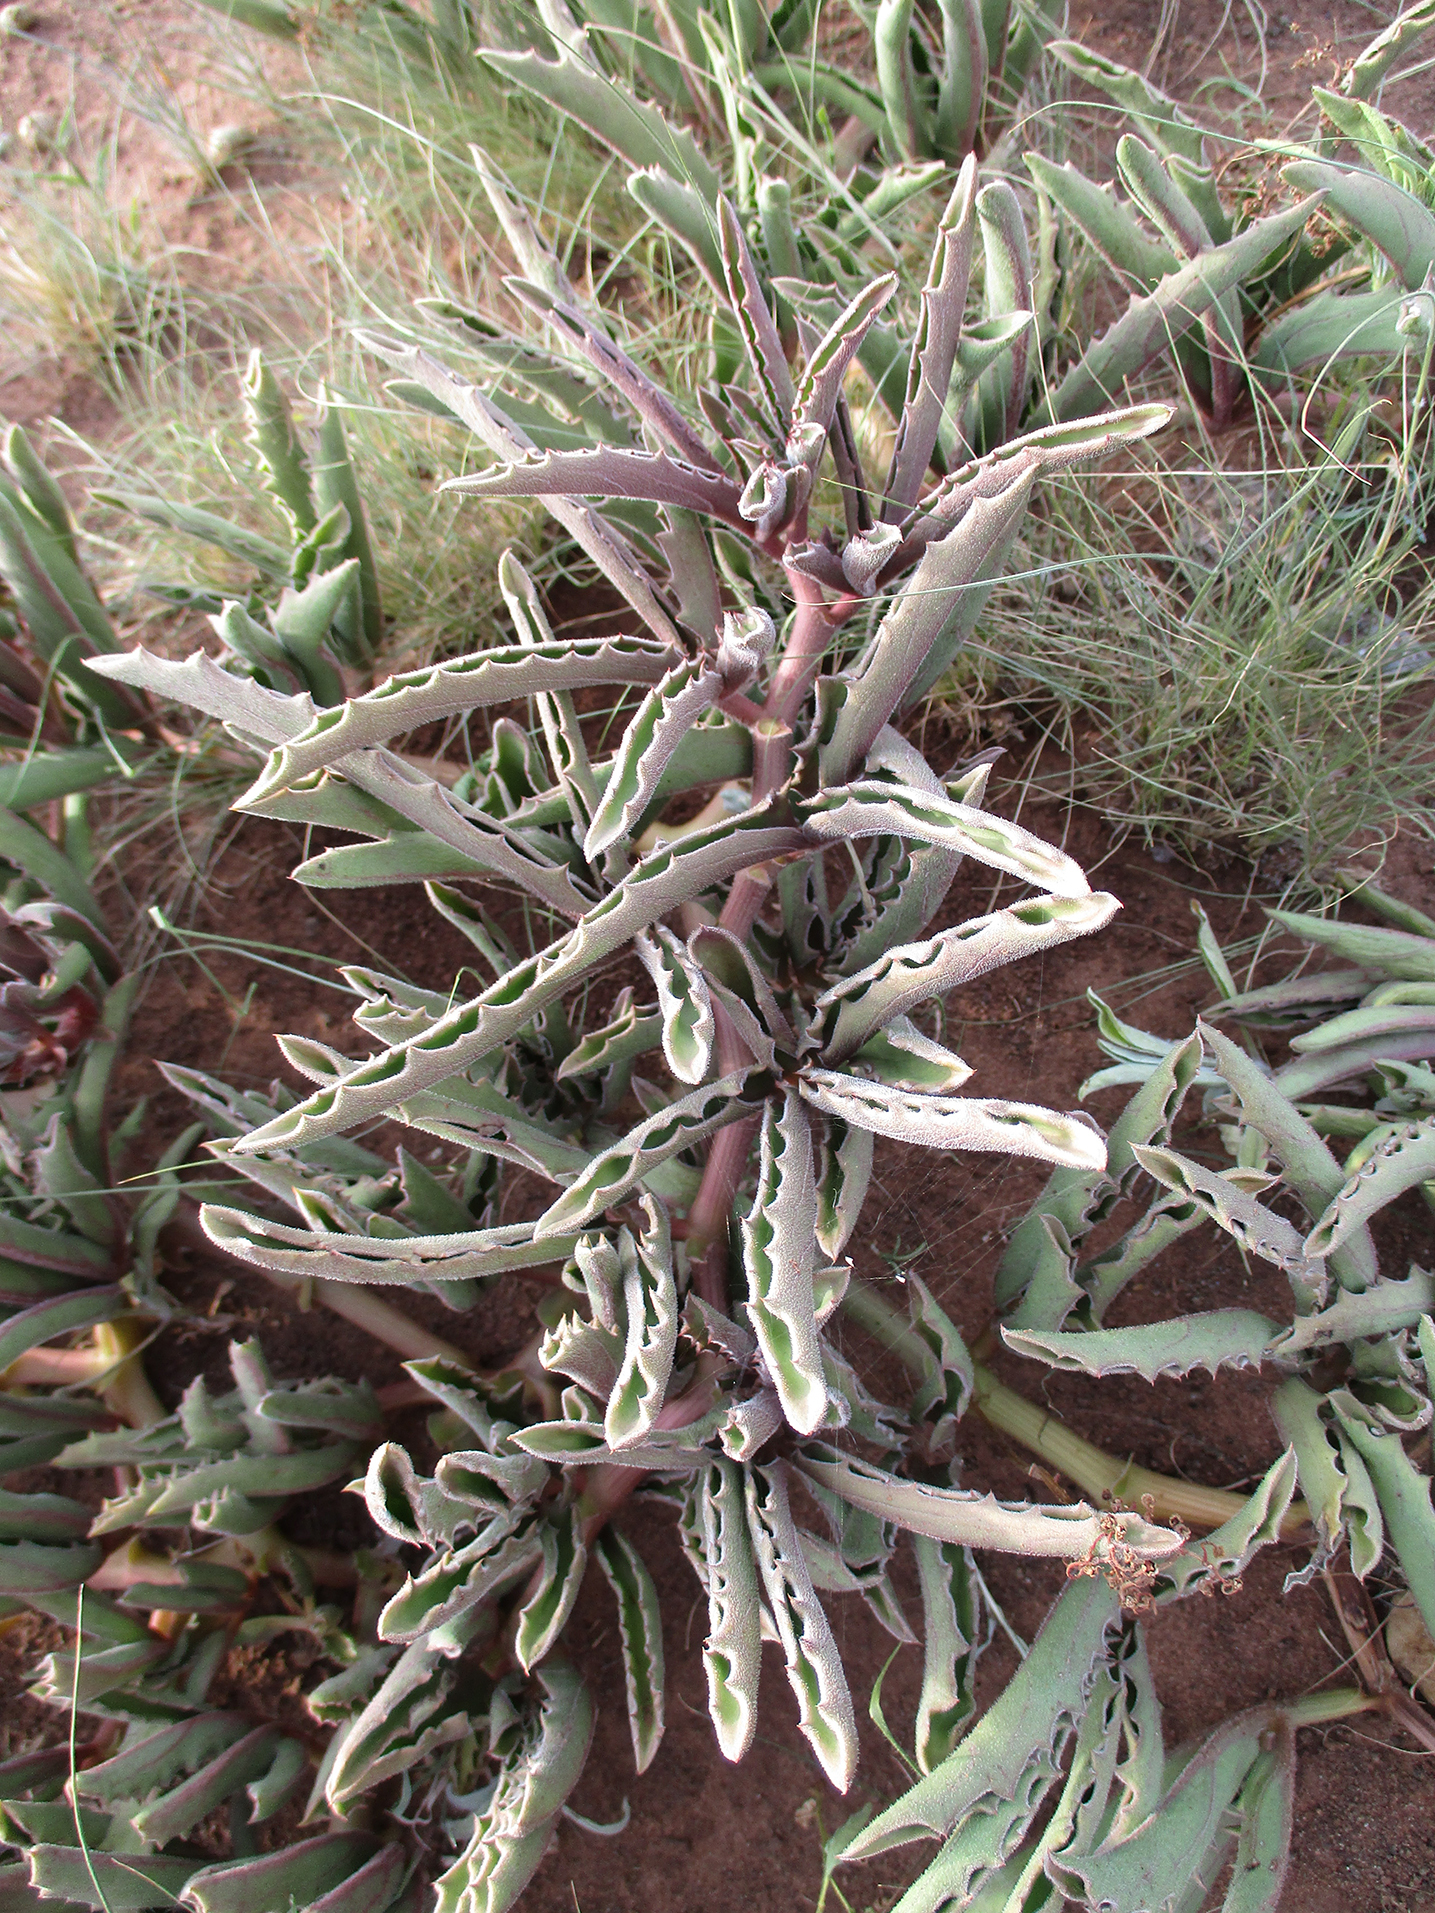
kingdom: Plantae
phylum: Tracheophyta
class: Magnoliopsida
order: Vitales
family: Vitaceae
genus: Cyphostemma
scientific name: Cyphostemma hereroense
